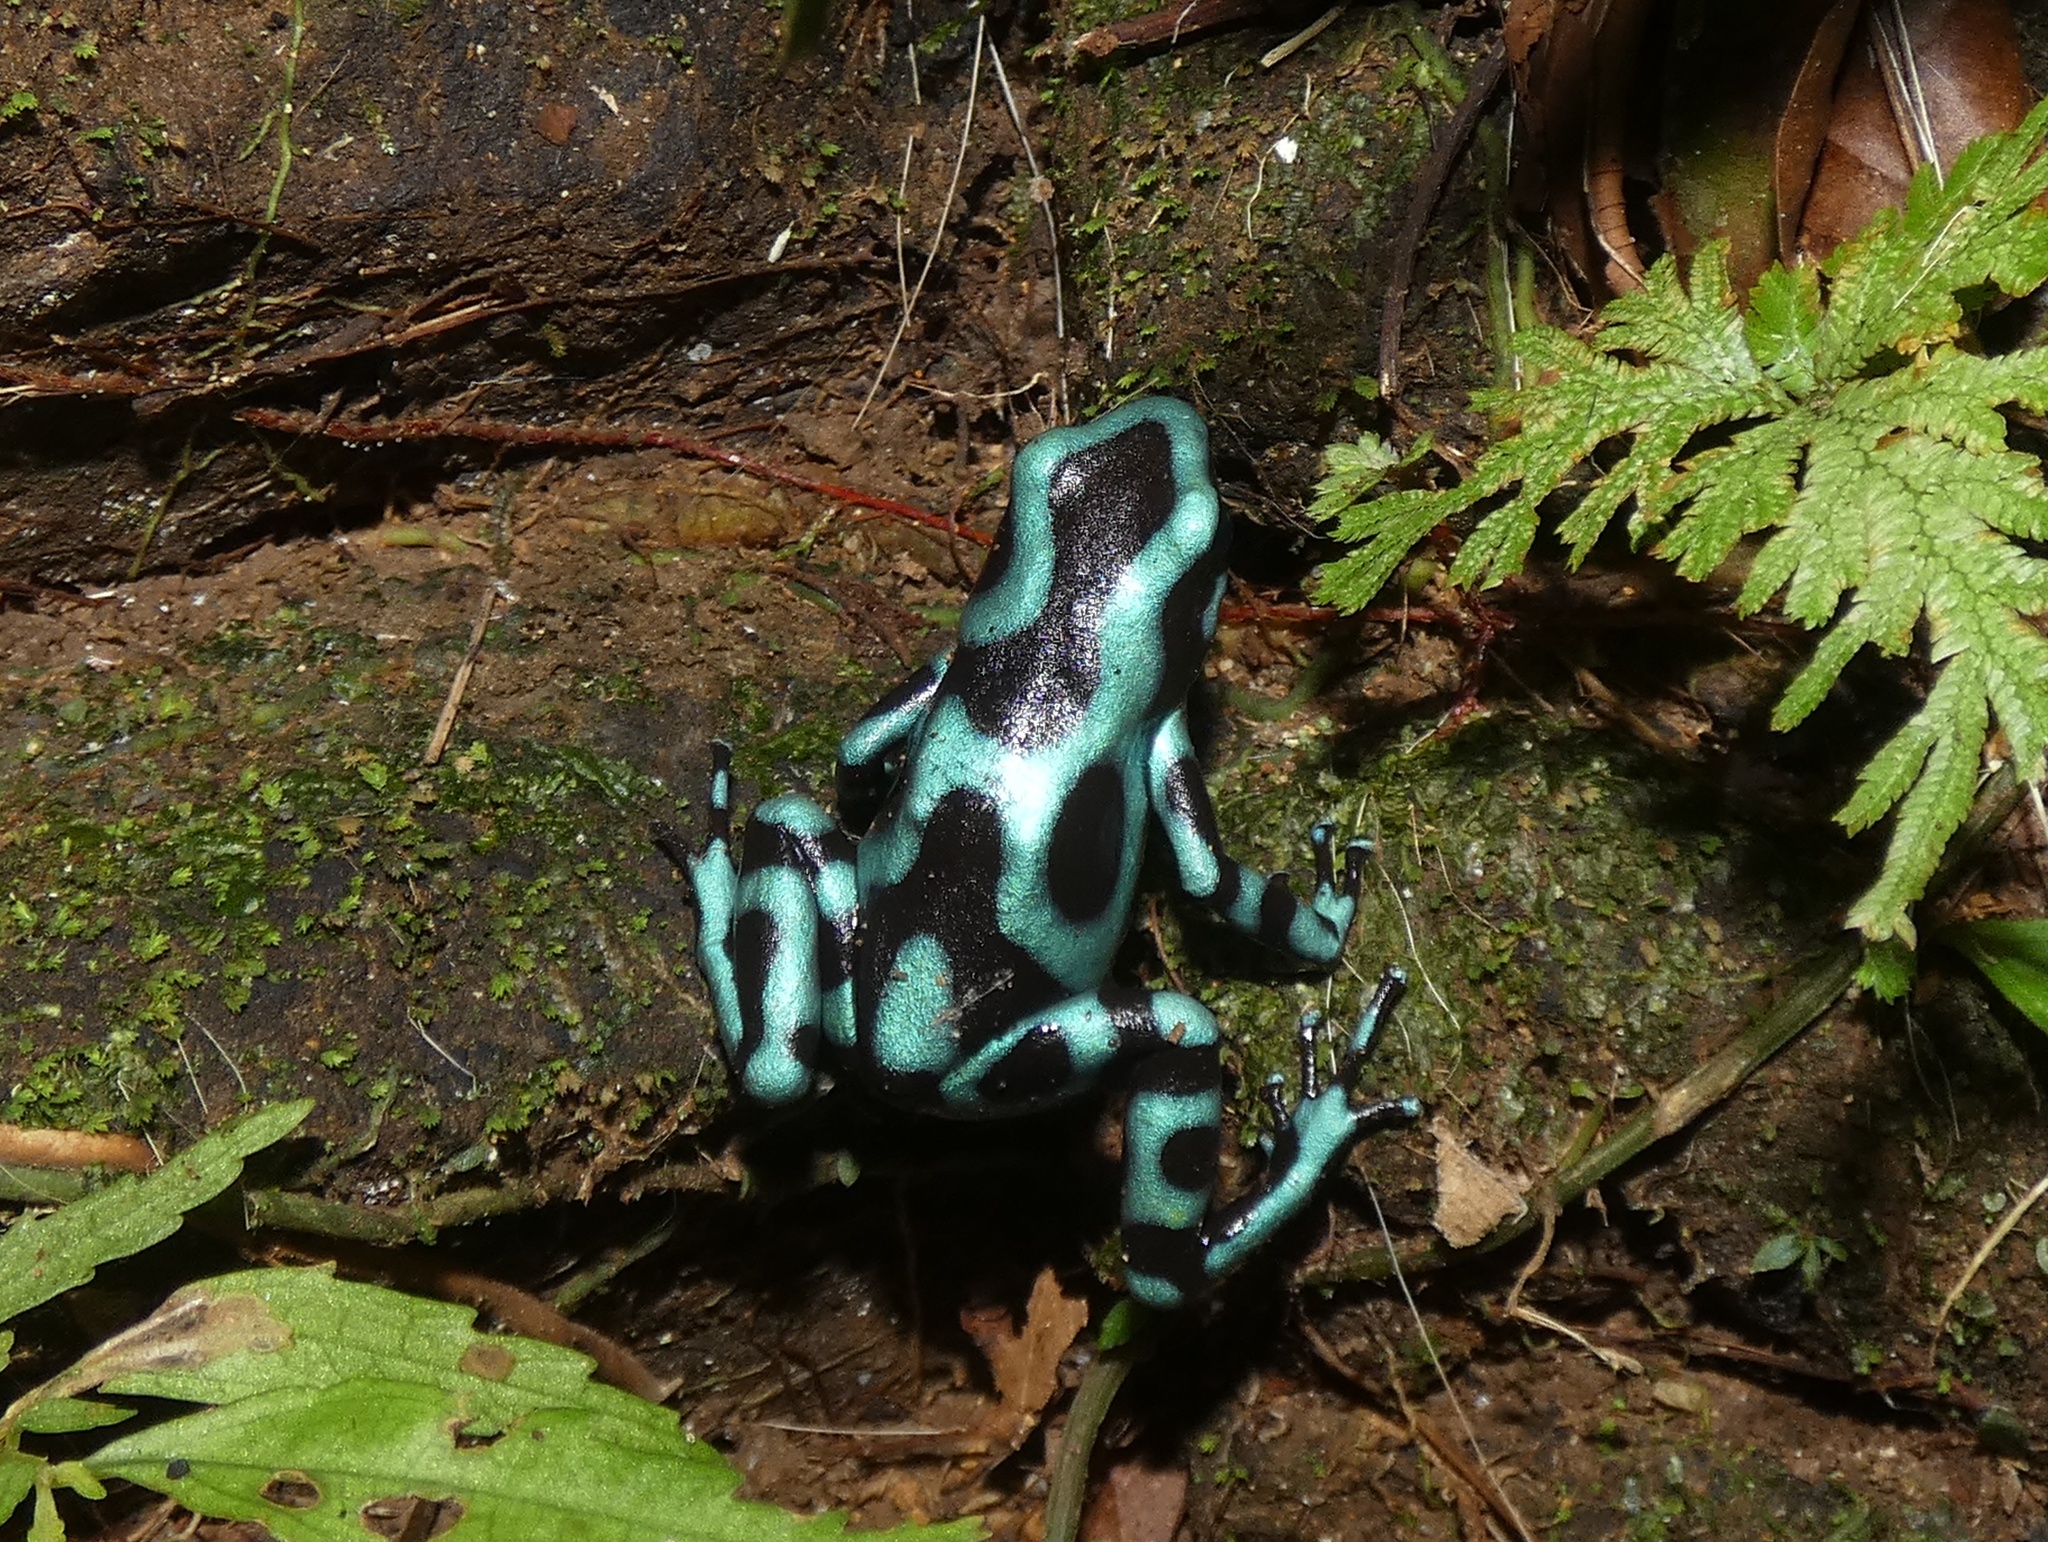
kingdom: Animalia
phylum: Chordata
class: Amphibia
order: Anura
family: Dendrobatidae
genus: Dendrobates
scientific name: Dendrobates auratus
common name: Green and black poison dart frog
